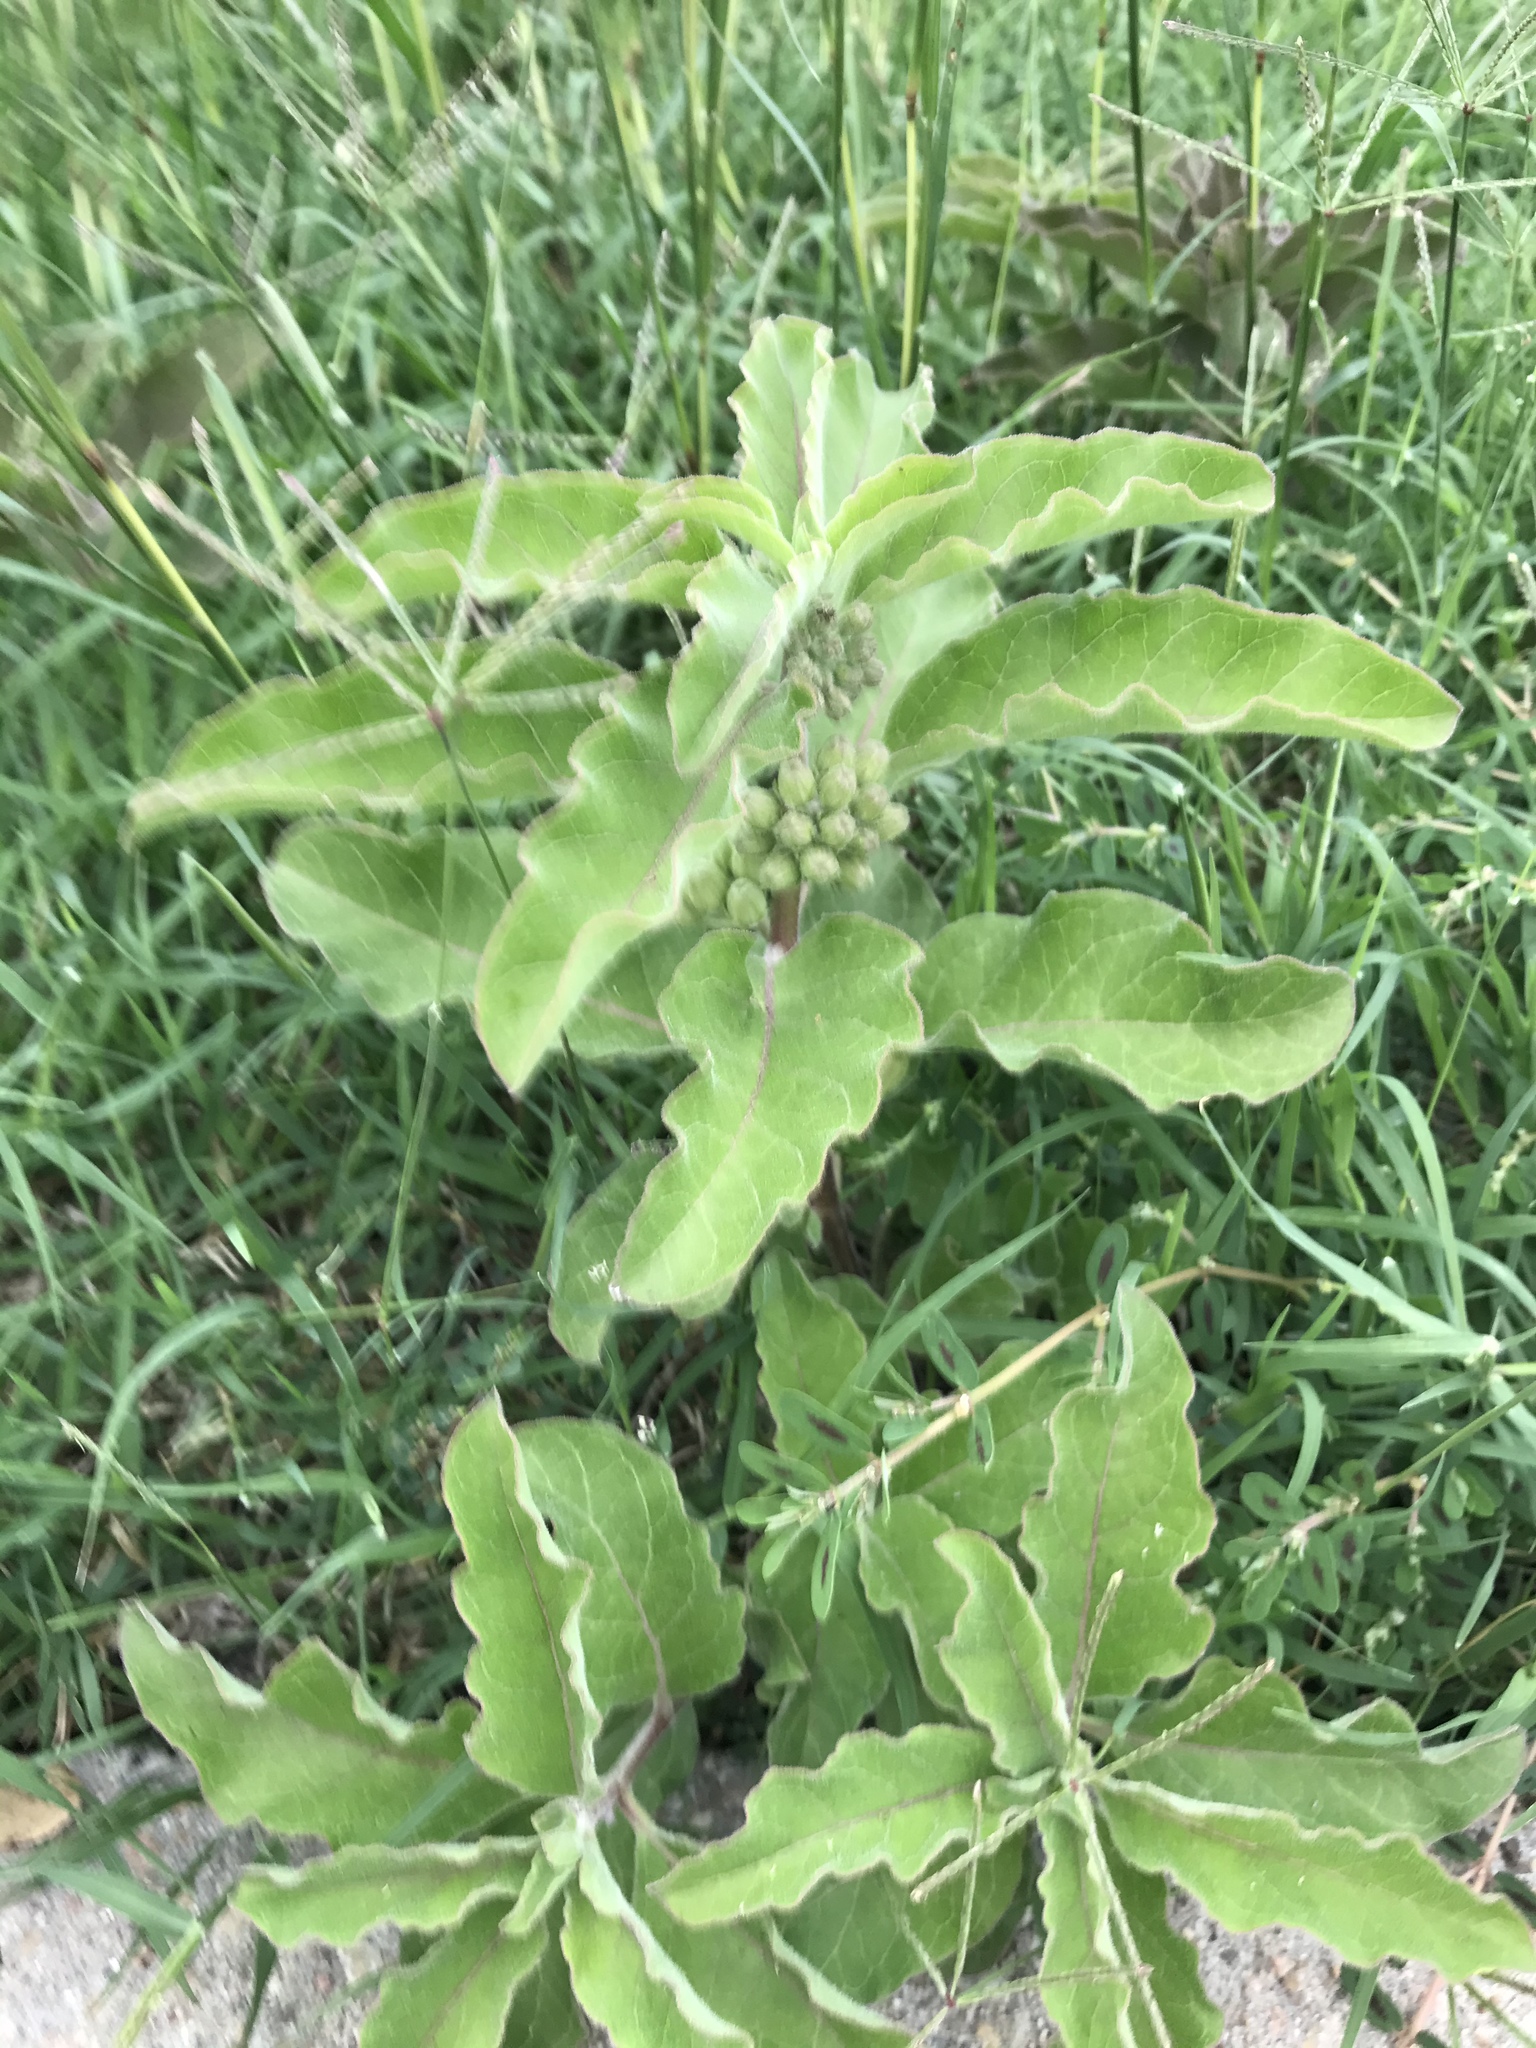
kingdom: Plantae
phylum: Tracheophyta
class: Magnoliopsida
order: Gentianales
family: Apocynaceae
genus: Asclepias
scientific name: Asclepias oenotheroides
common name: Zizotes milkweed
